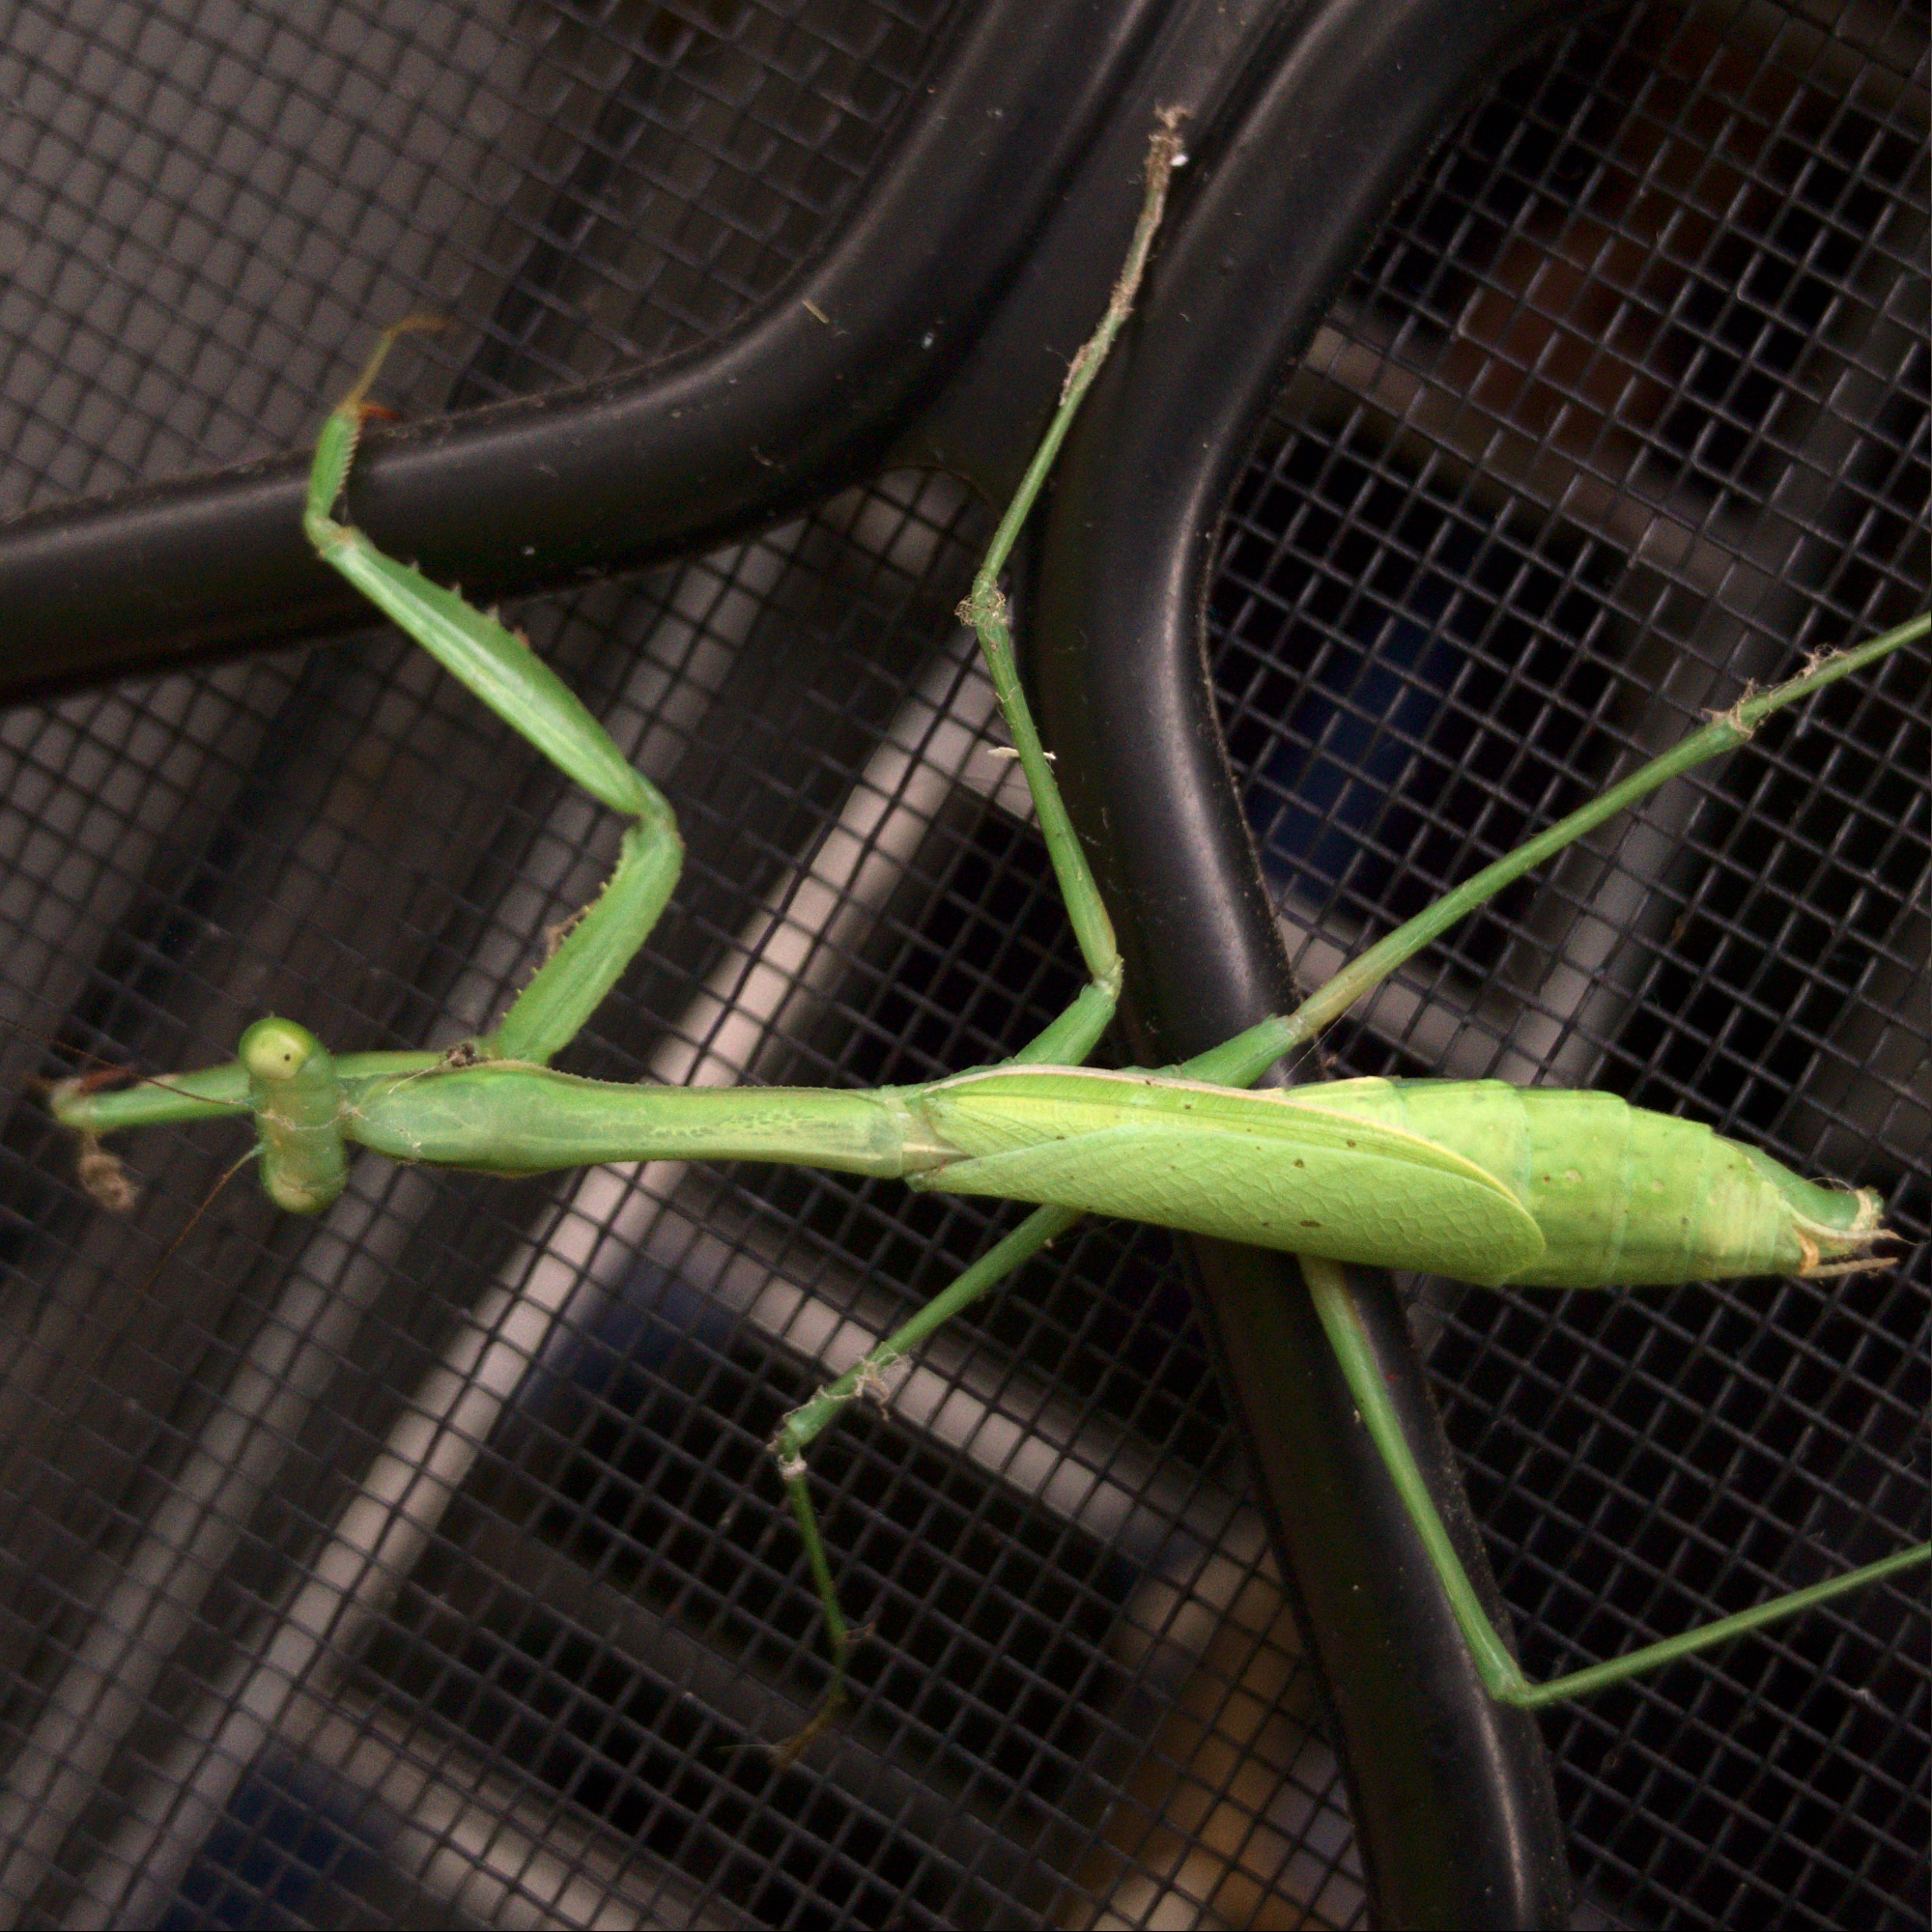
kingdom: Animalia
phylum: Arthropoda
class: Insecta
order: Mantodea
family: Mantidae
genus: Pseudomantis
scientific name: Pseudomantis albofimbriata
